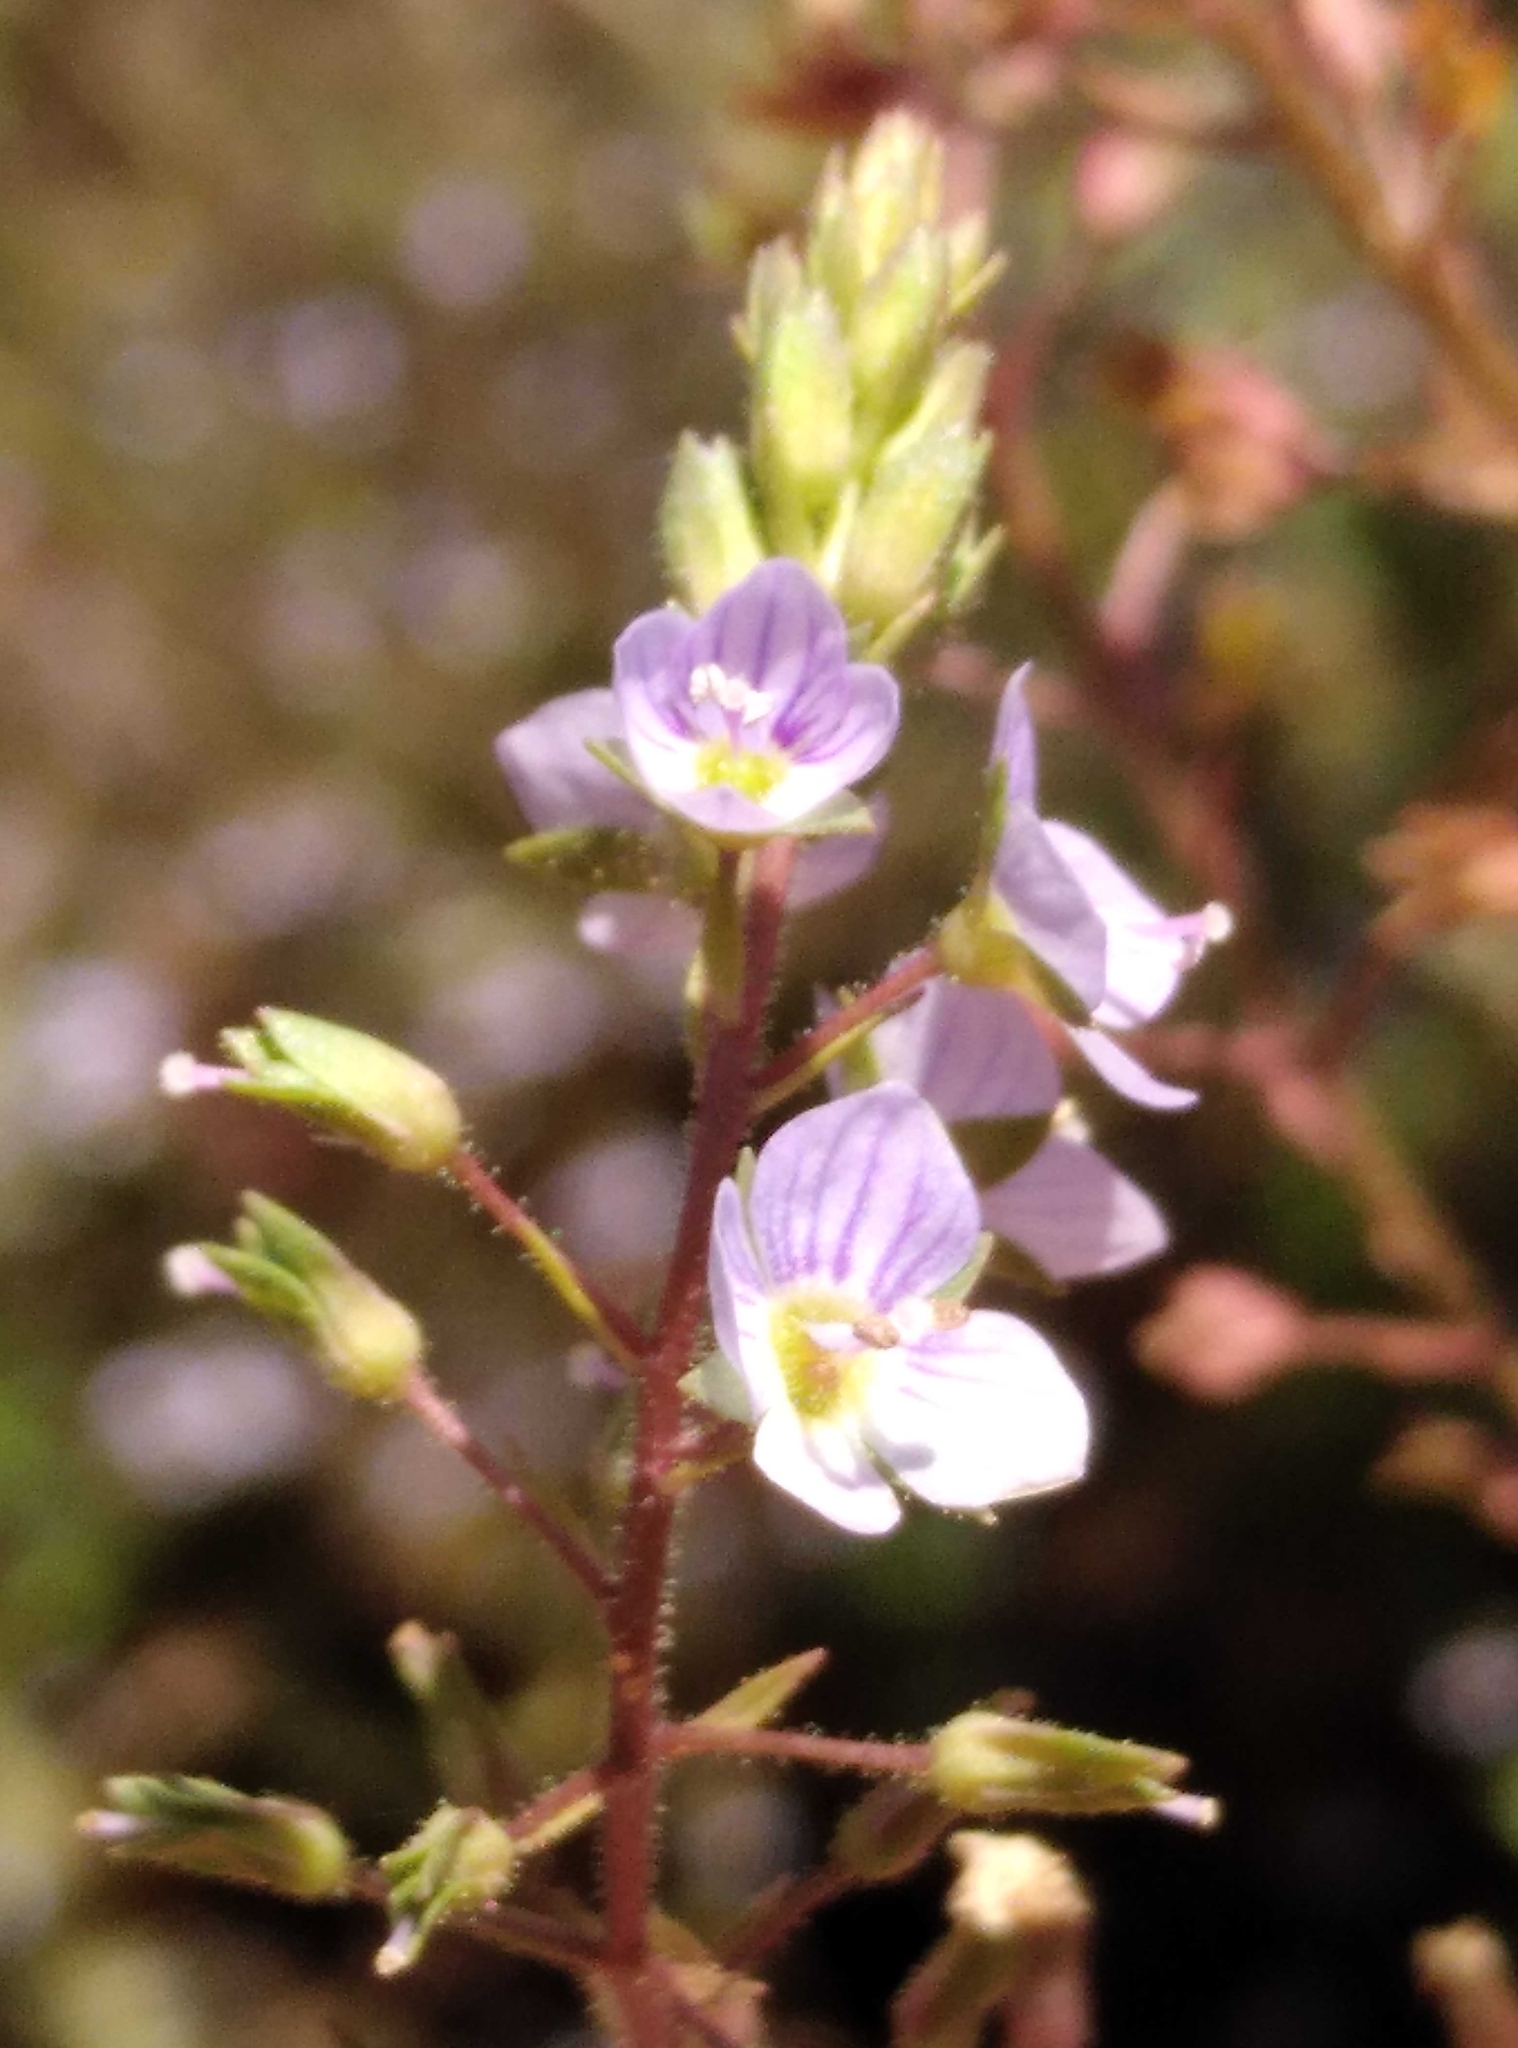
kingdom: Plantae
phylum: Tracheophyta
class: Magnoliopsida
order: Lamiales
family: Plantaginaceae
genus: Veronica
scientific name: Veronica anagallis-aquatica
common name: Water speedwell
